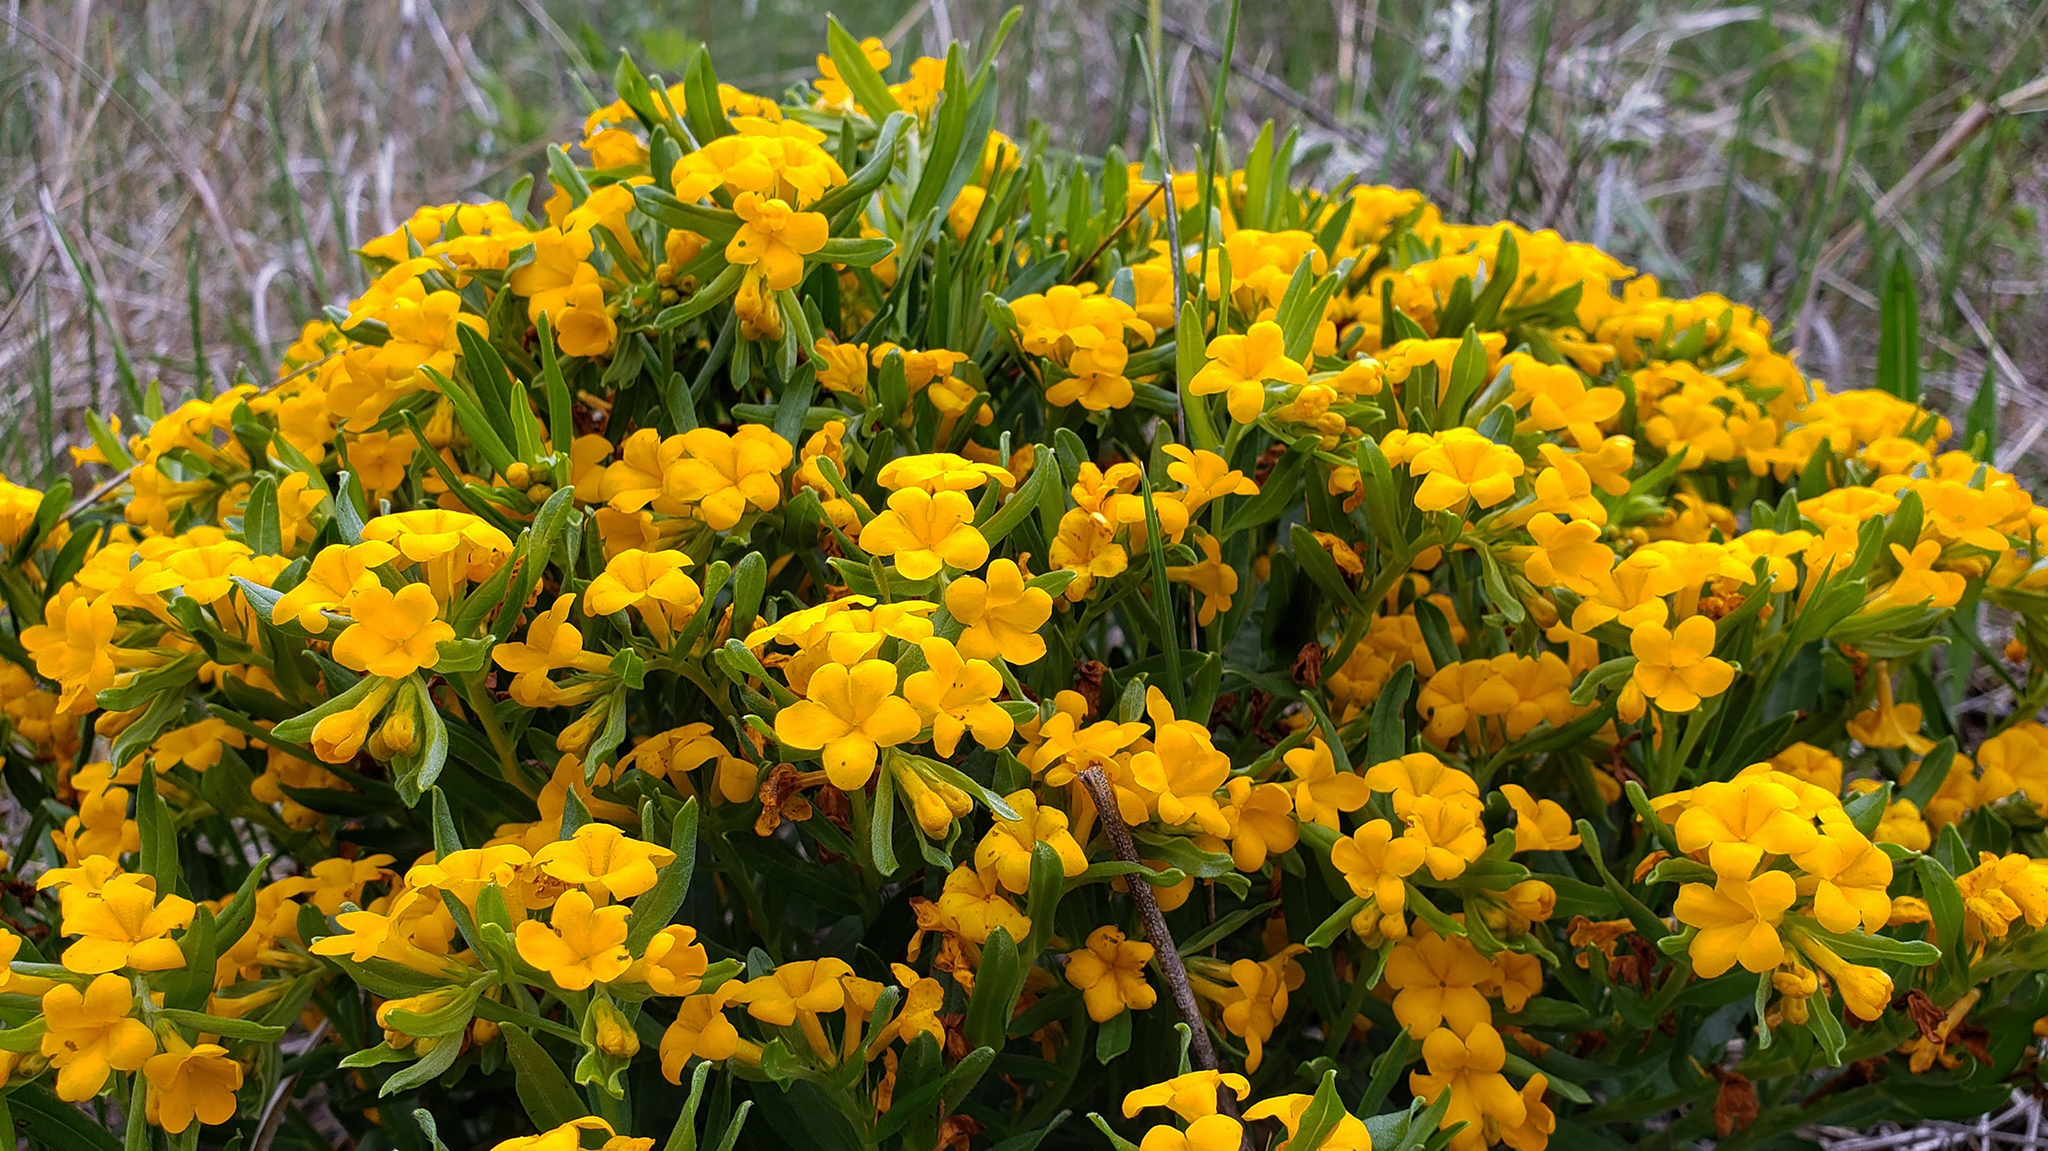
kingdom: Plantae
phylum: Tracheophyta
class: Magnoliopsida
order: Boraginales
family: Boraginaceae
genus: Lithospermum
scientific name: Lithospermum canescens
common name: Hoary puccoon
